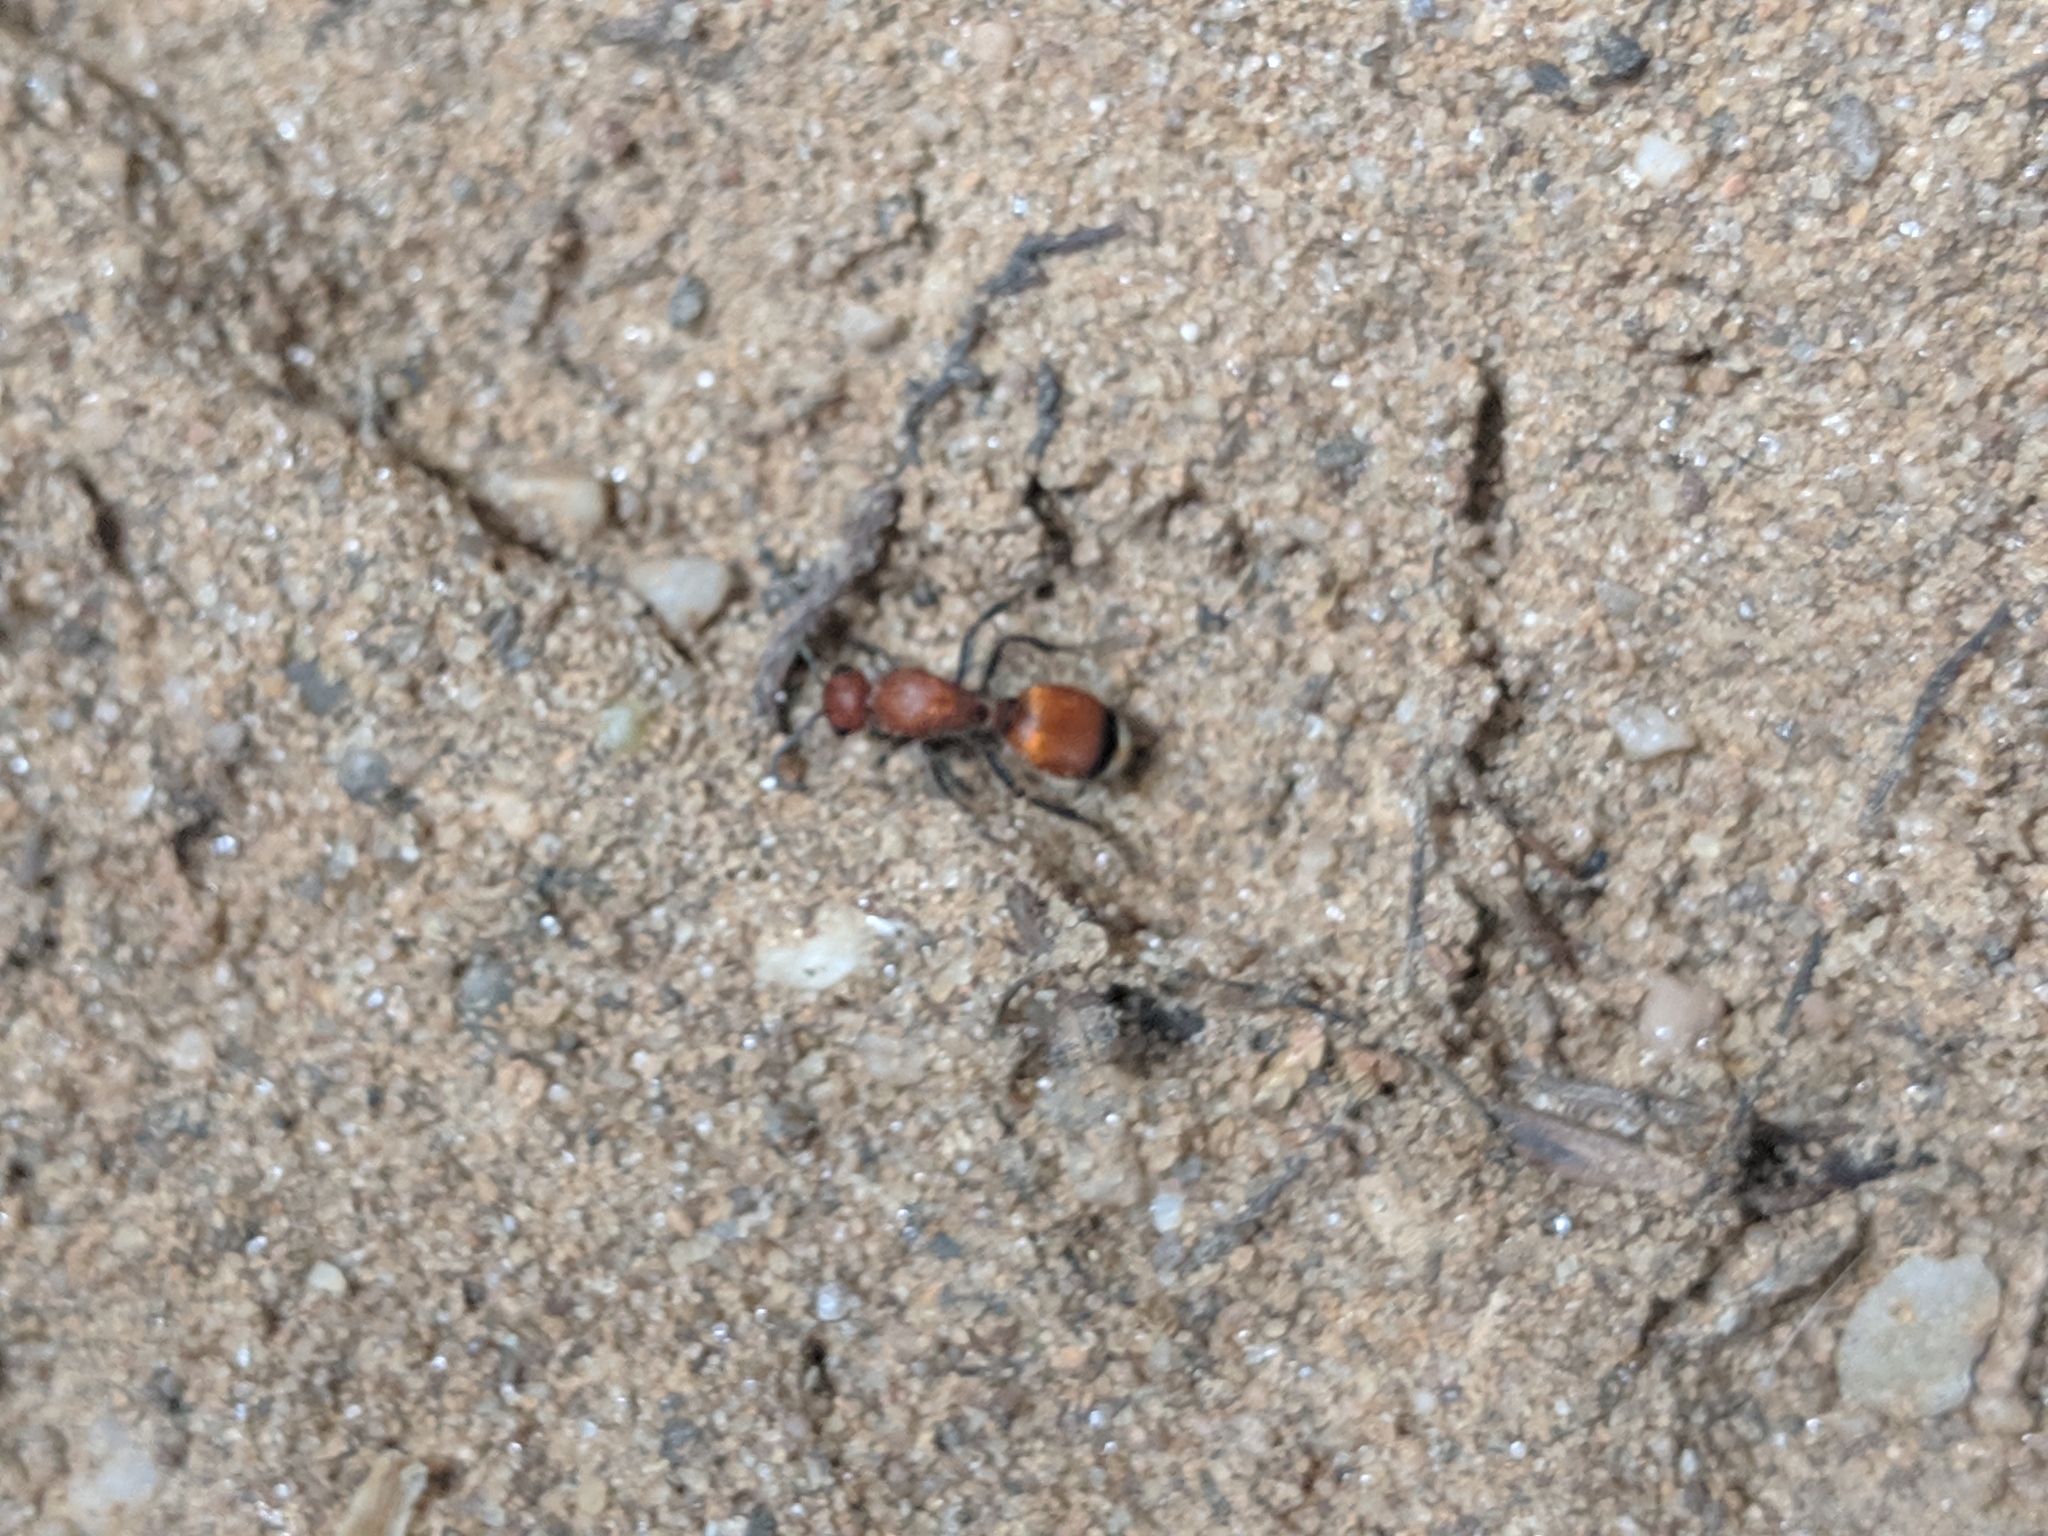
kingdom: Animalia
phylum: Arthropoda
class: Insecta
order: Hymenoptera
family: Mutillidae
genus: Dasymutilla
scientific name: Dasymutilla
